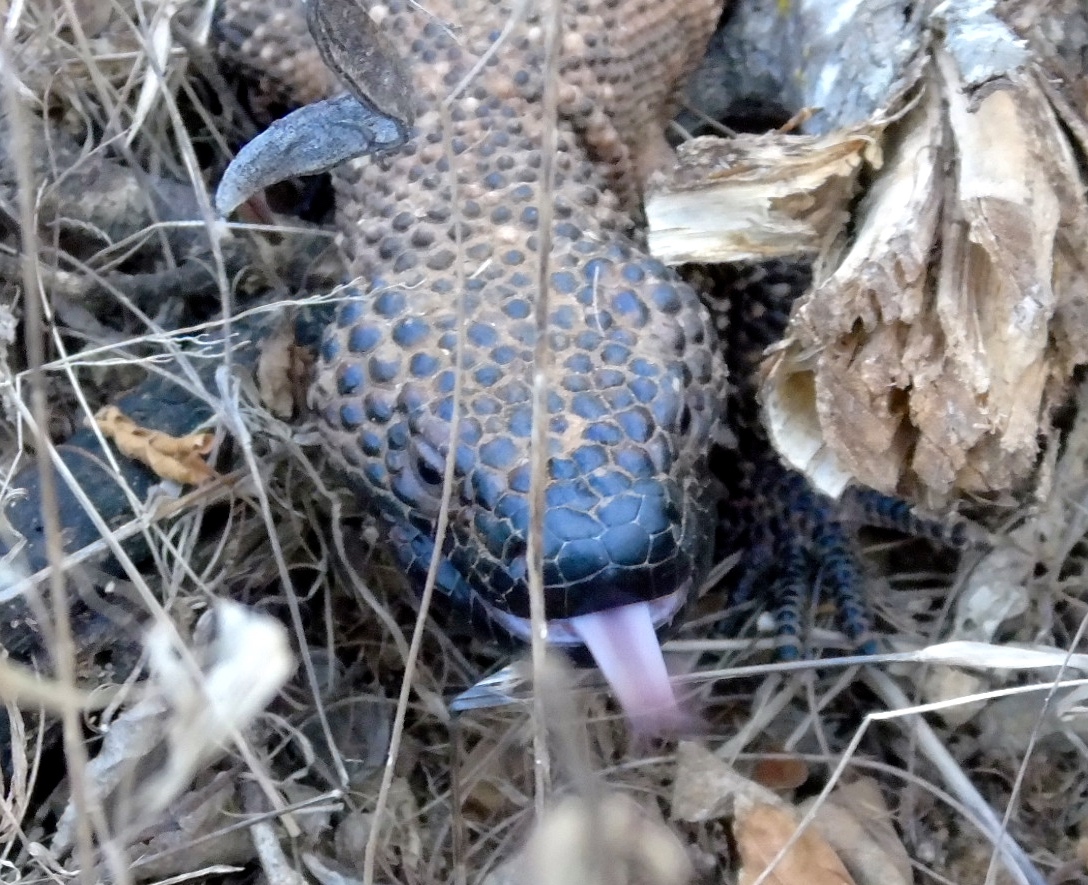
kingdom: Animalia
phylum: Chordata
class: Squamata
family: Helodermatidae
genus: Heloderma
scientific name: Heloderma horridum
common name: Mexican beaded lizard
